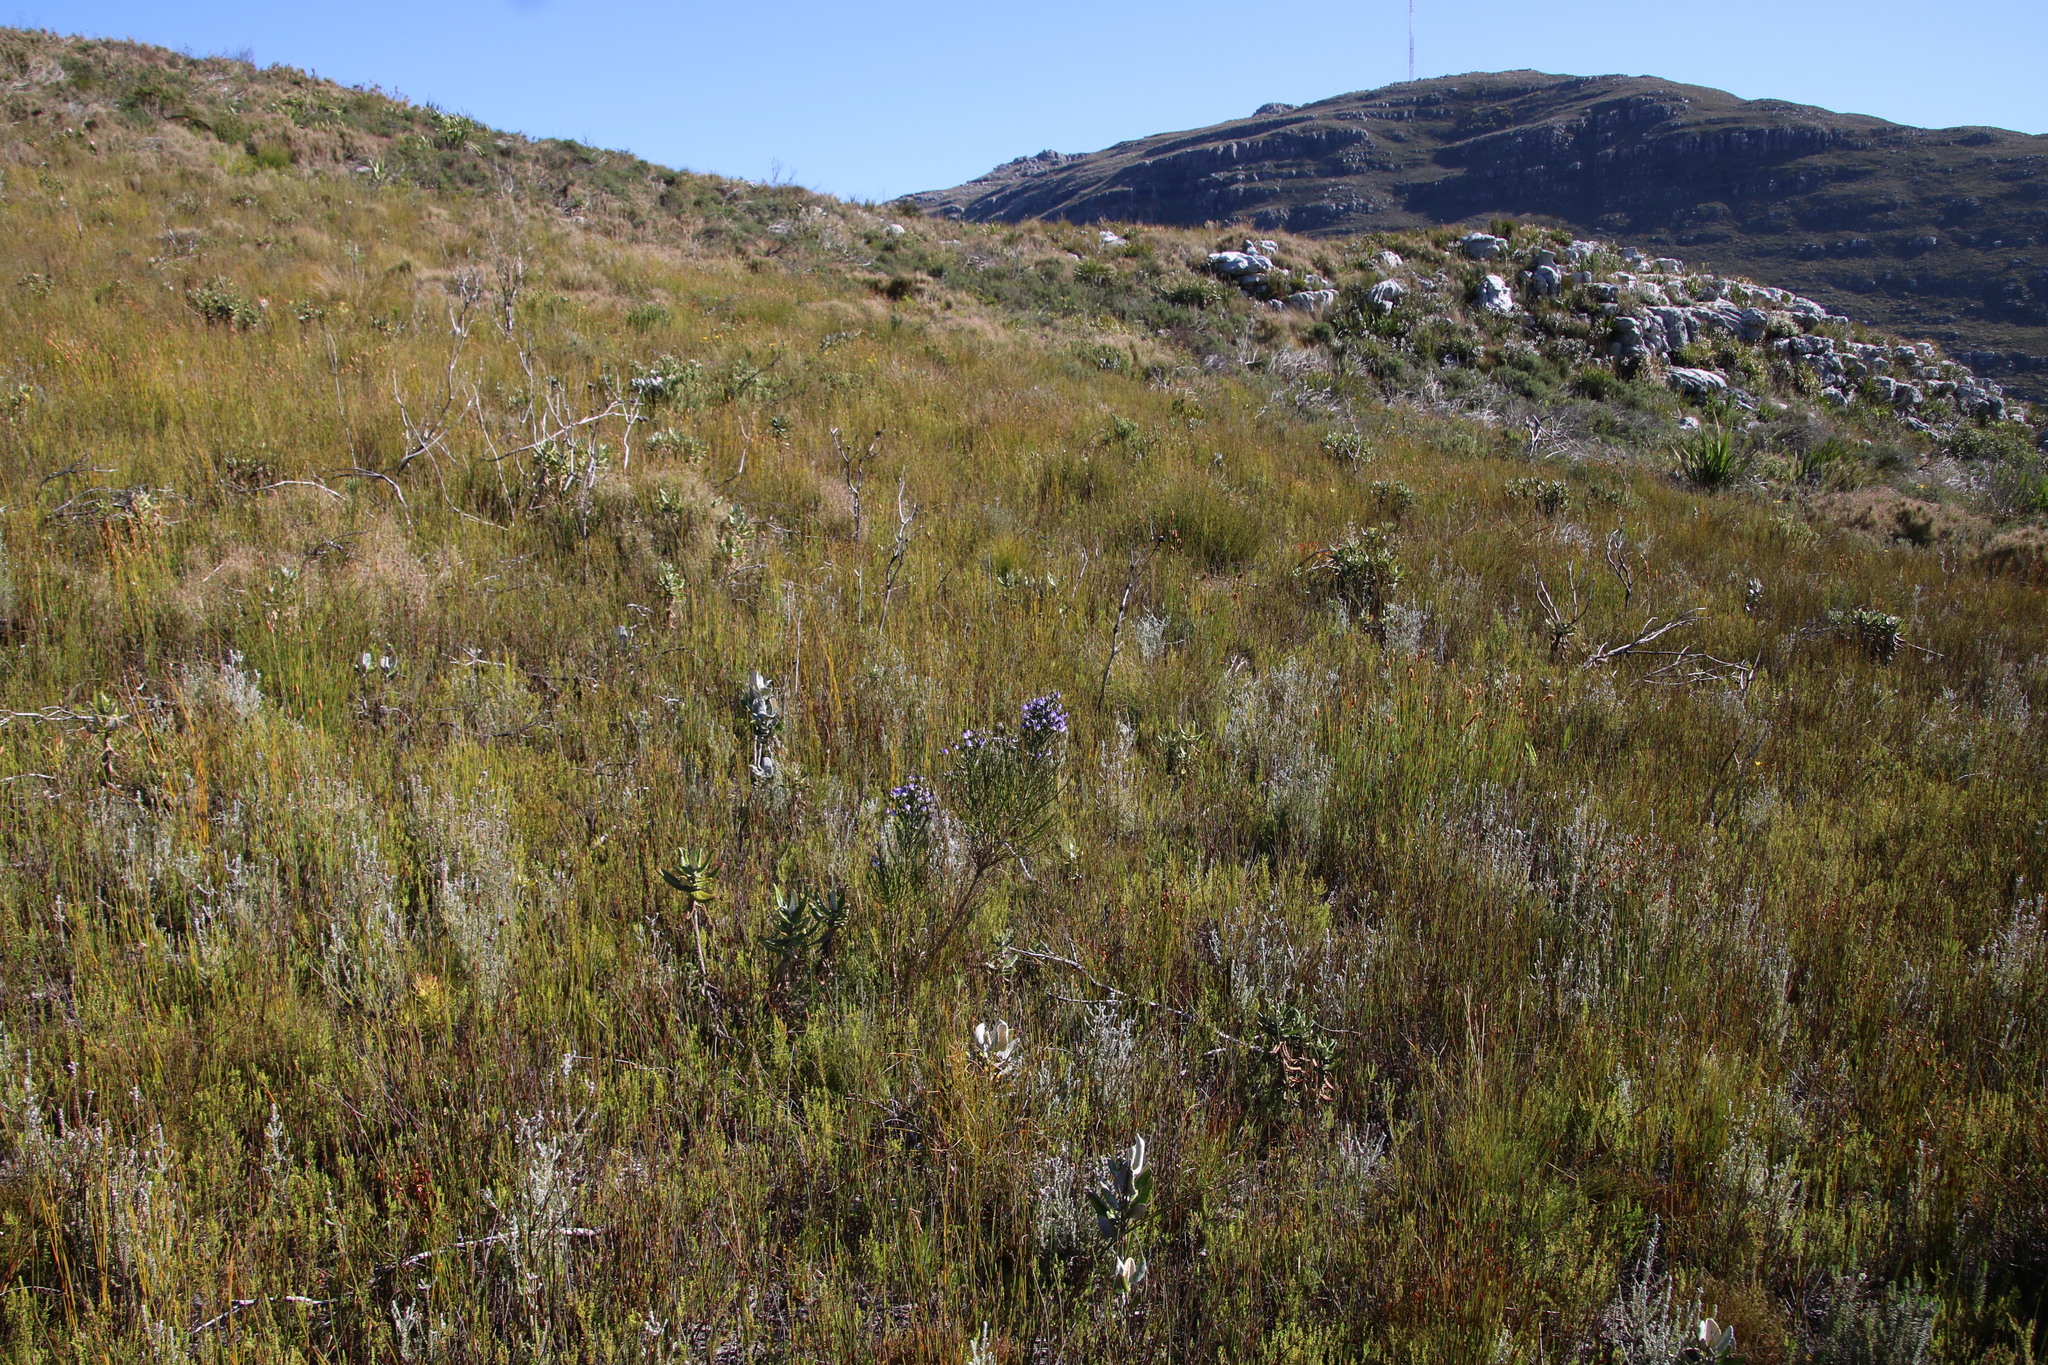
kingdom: Plantae
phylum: Tracheophyta
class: Magnoliopsida
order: Fabales
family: Fabaceae
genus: Psoralea
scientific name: Psoralea congesta
